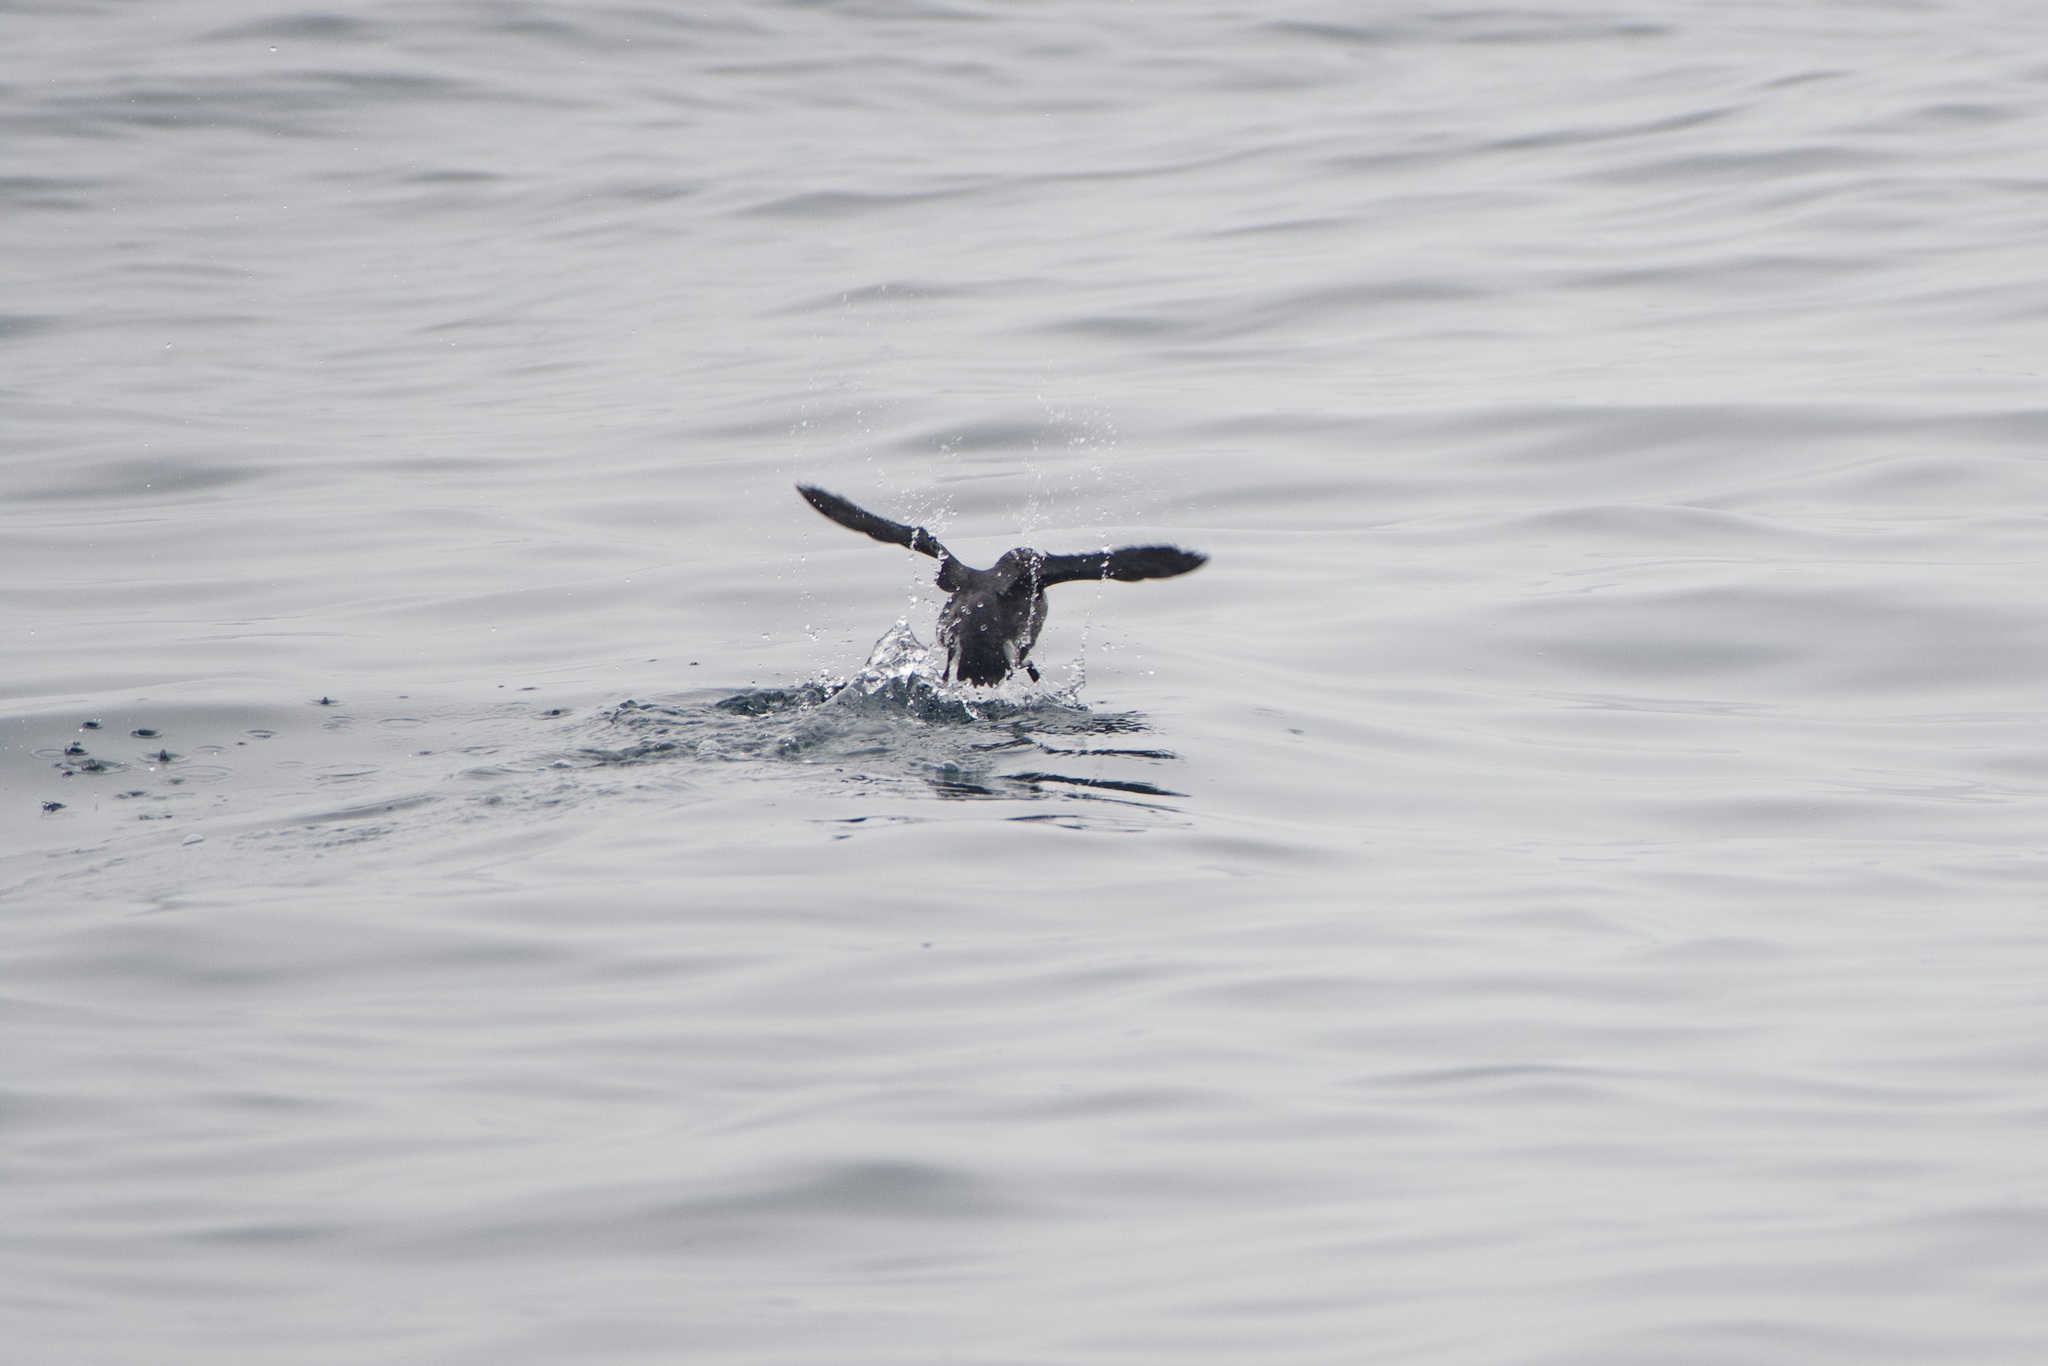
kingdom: Animalia
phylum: Chordata
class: Aves
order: Charadriiformes
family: Alcidae
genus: Ptychoramphus
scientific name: Ptychoramphus aleuticus
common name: Cassin's auklet
